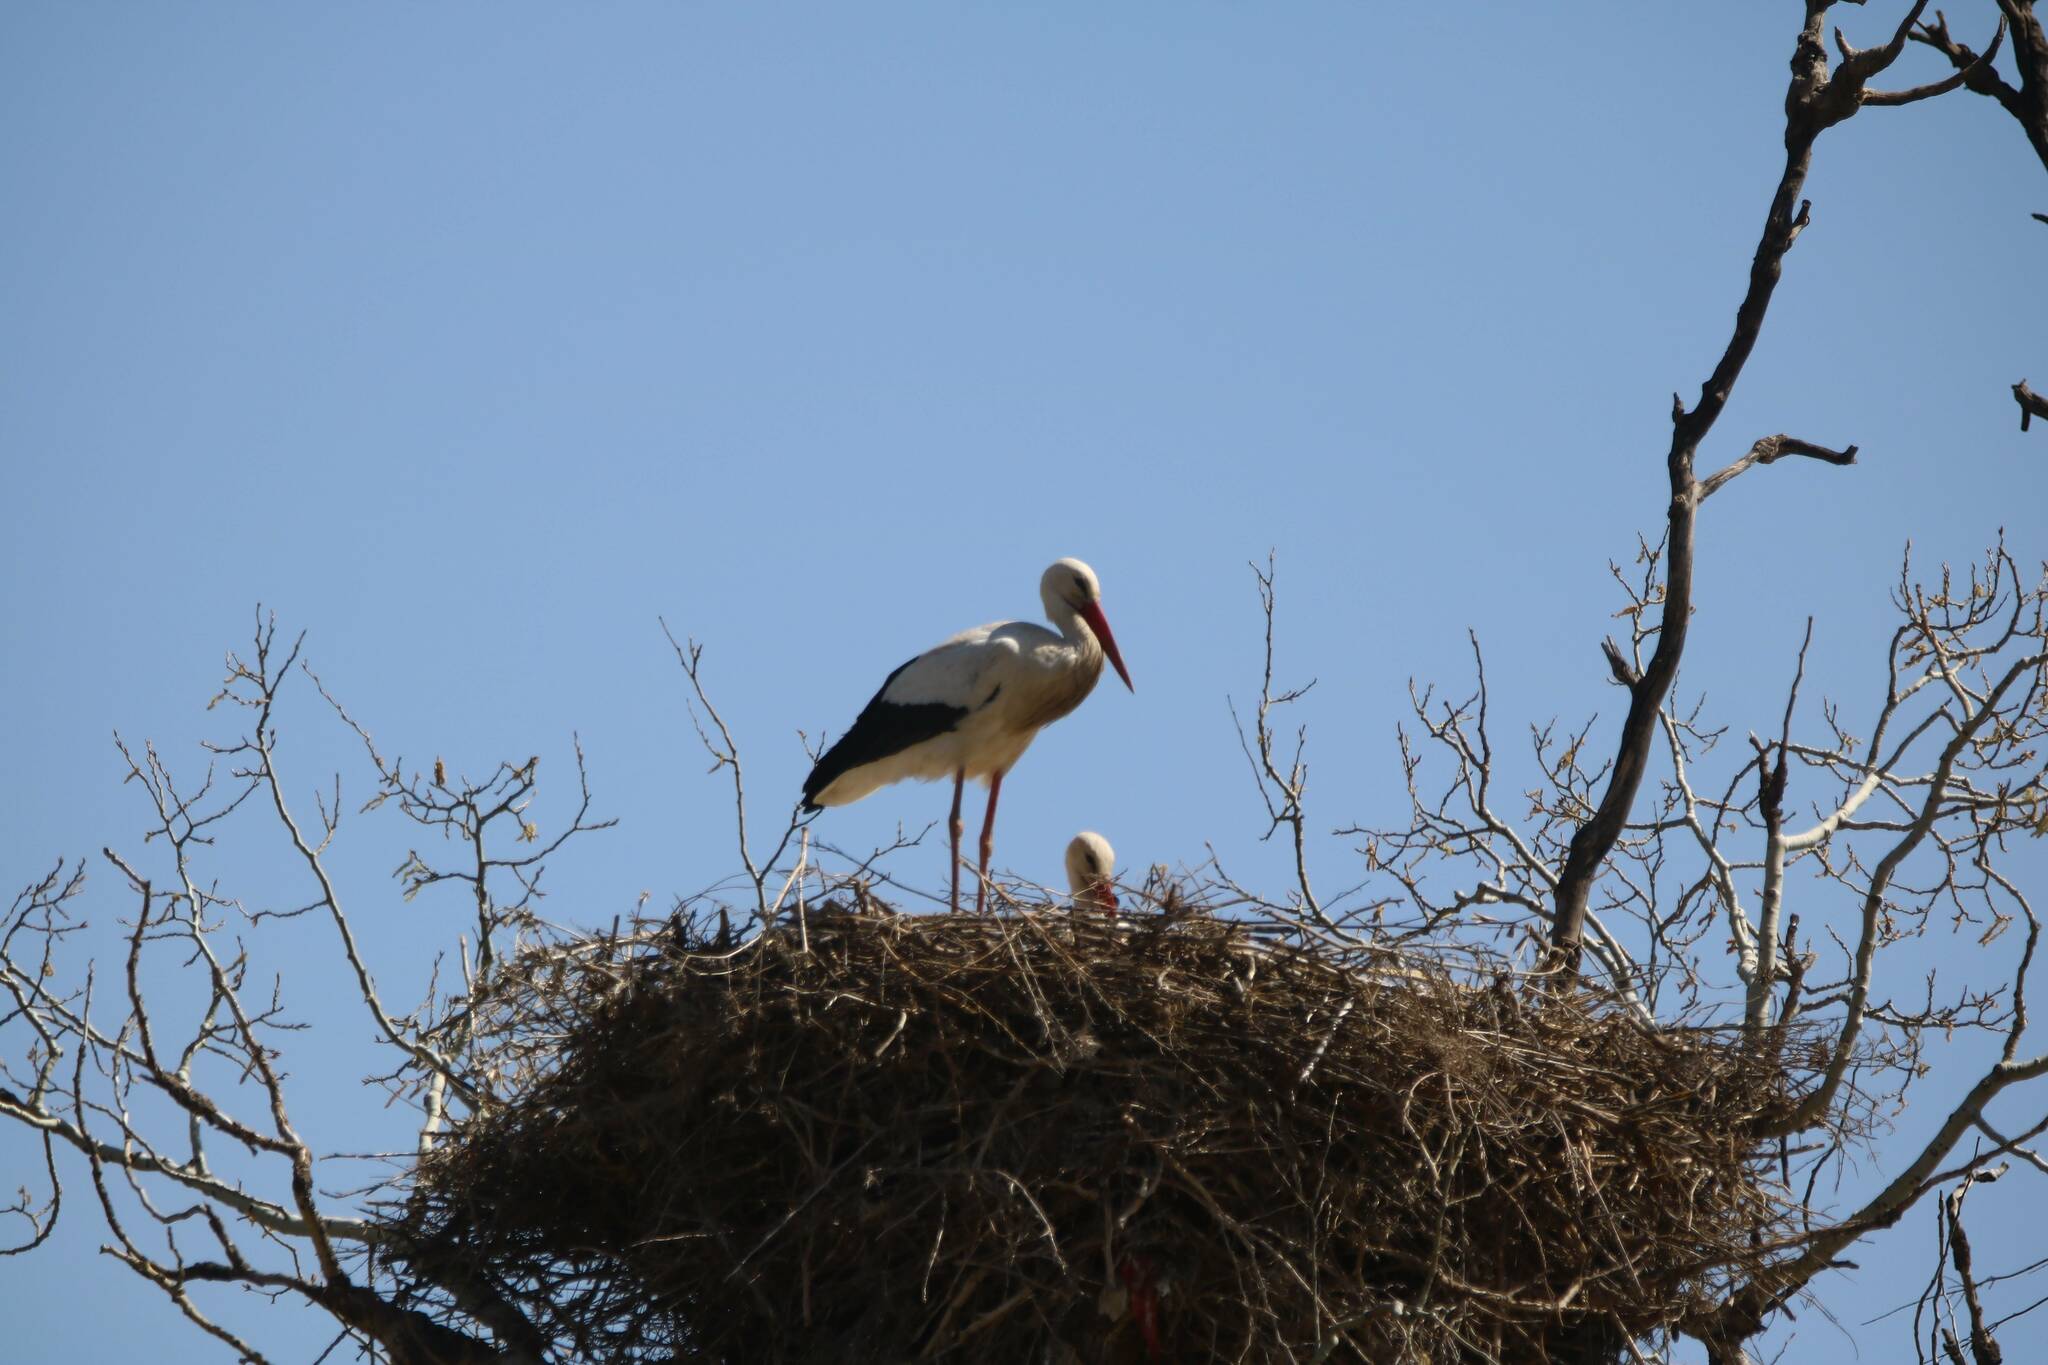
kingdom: Animalia
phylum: Chordata
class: Aves
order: Ciconiiformes
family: Ciconiidae
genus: Ciconia
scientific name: Ciconia ciconia
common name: White stork
